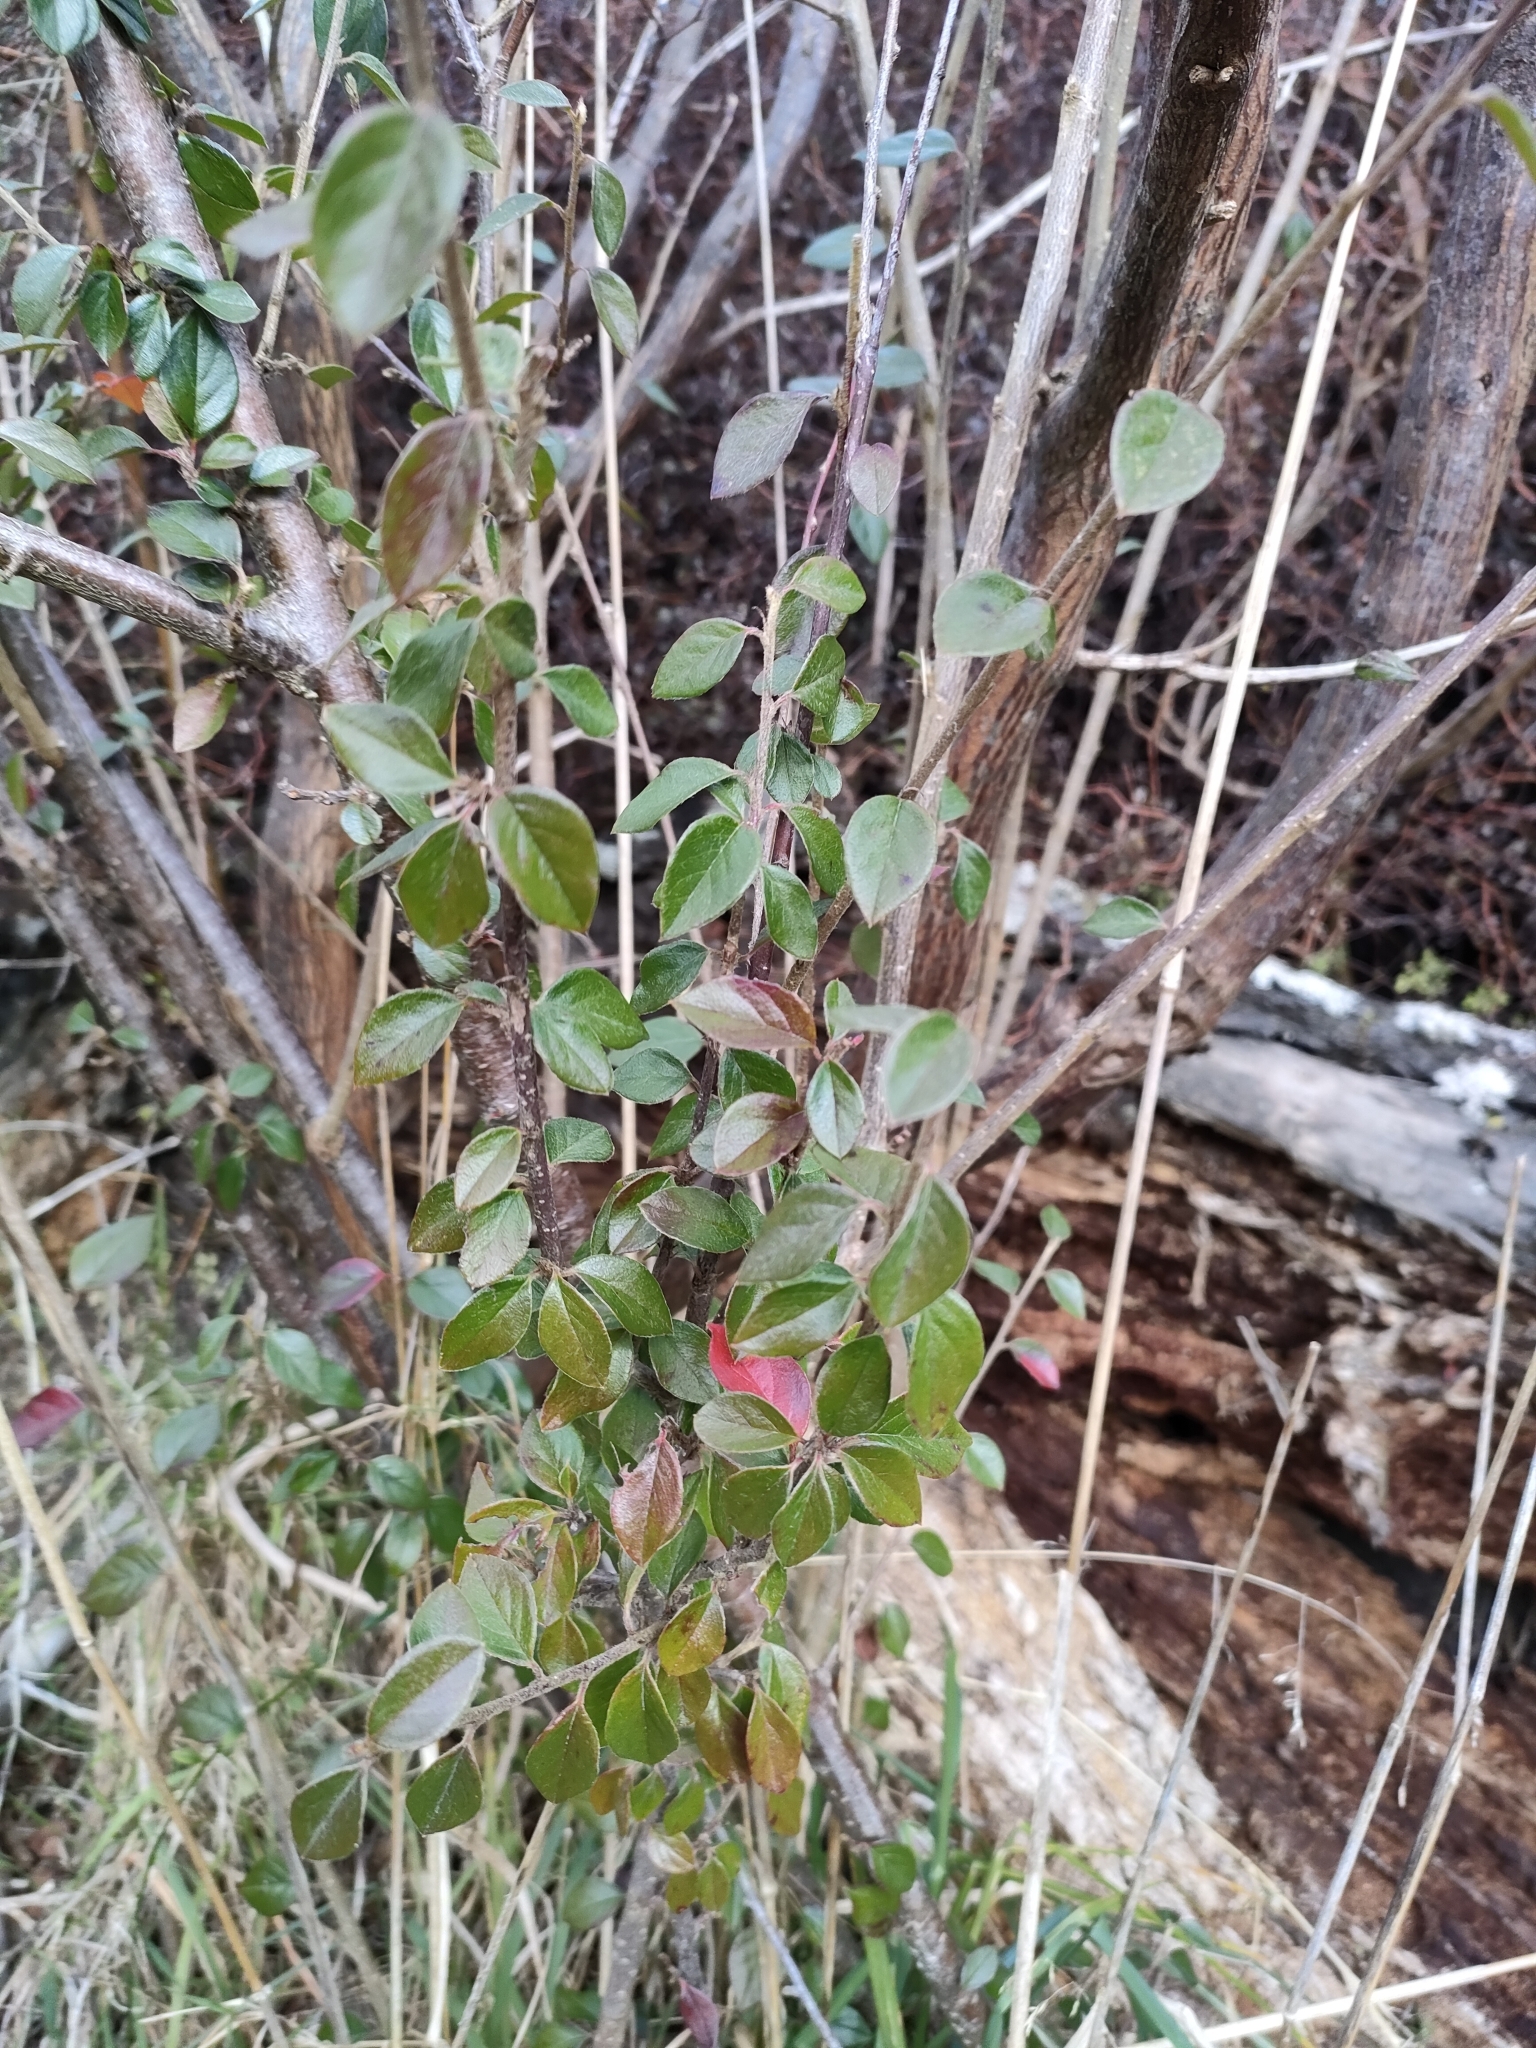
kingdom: Plantae
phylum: Tracheophyta
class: Magnoliopsida
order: Rosales
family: Rosaceae
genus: Cotoneaster
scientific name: Cotoneaster simonsii
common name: Himalayan cotoneaster
